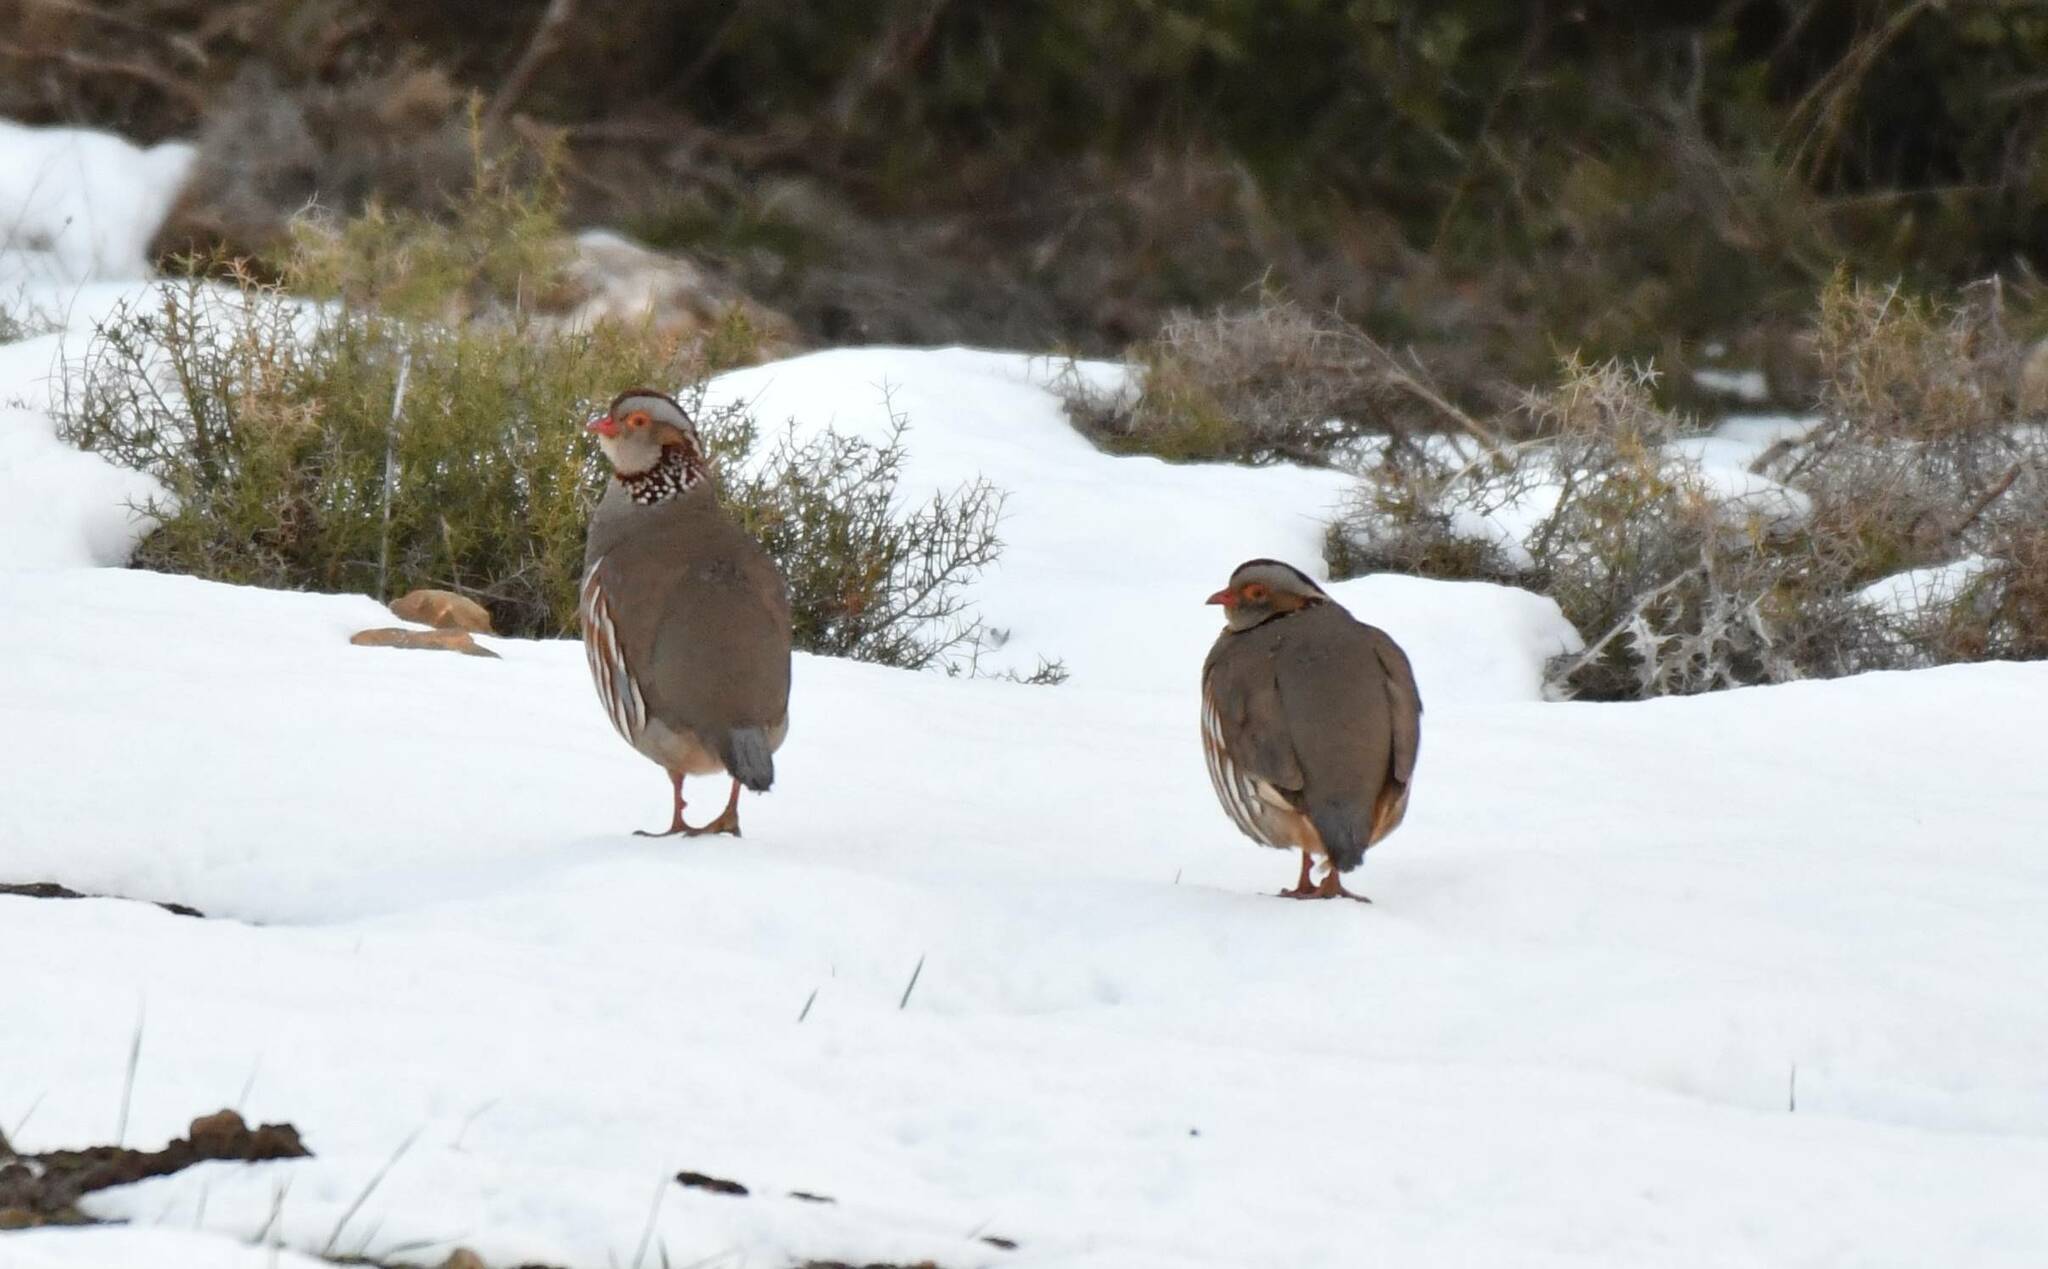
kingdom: Animalia
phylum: Chordata
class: Aves
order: Galliformes
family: Phasianidae
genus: Alectoris
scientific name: Alectoris barbara
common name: Barbary partridge
